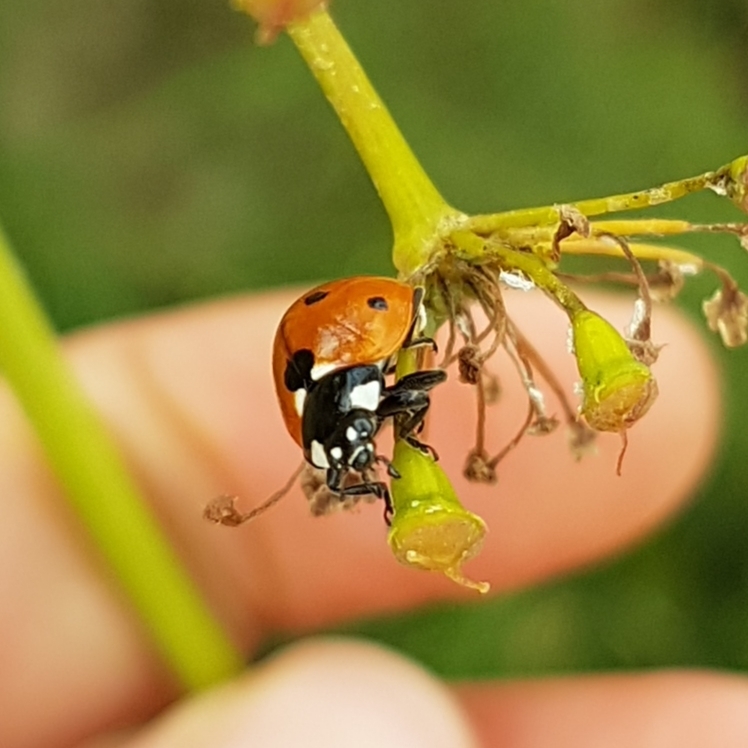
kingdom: Animalia
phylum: Arthropoda
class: Insecta
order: Coleoptera
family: Coccinellidae
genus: Coccinella
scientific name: Coccinella septempunctata
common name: Sevenspotted lady beetle
